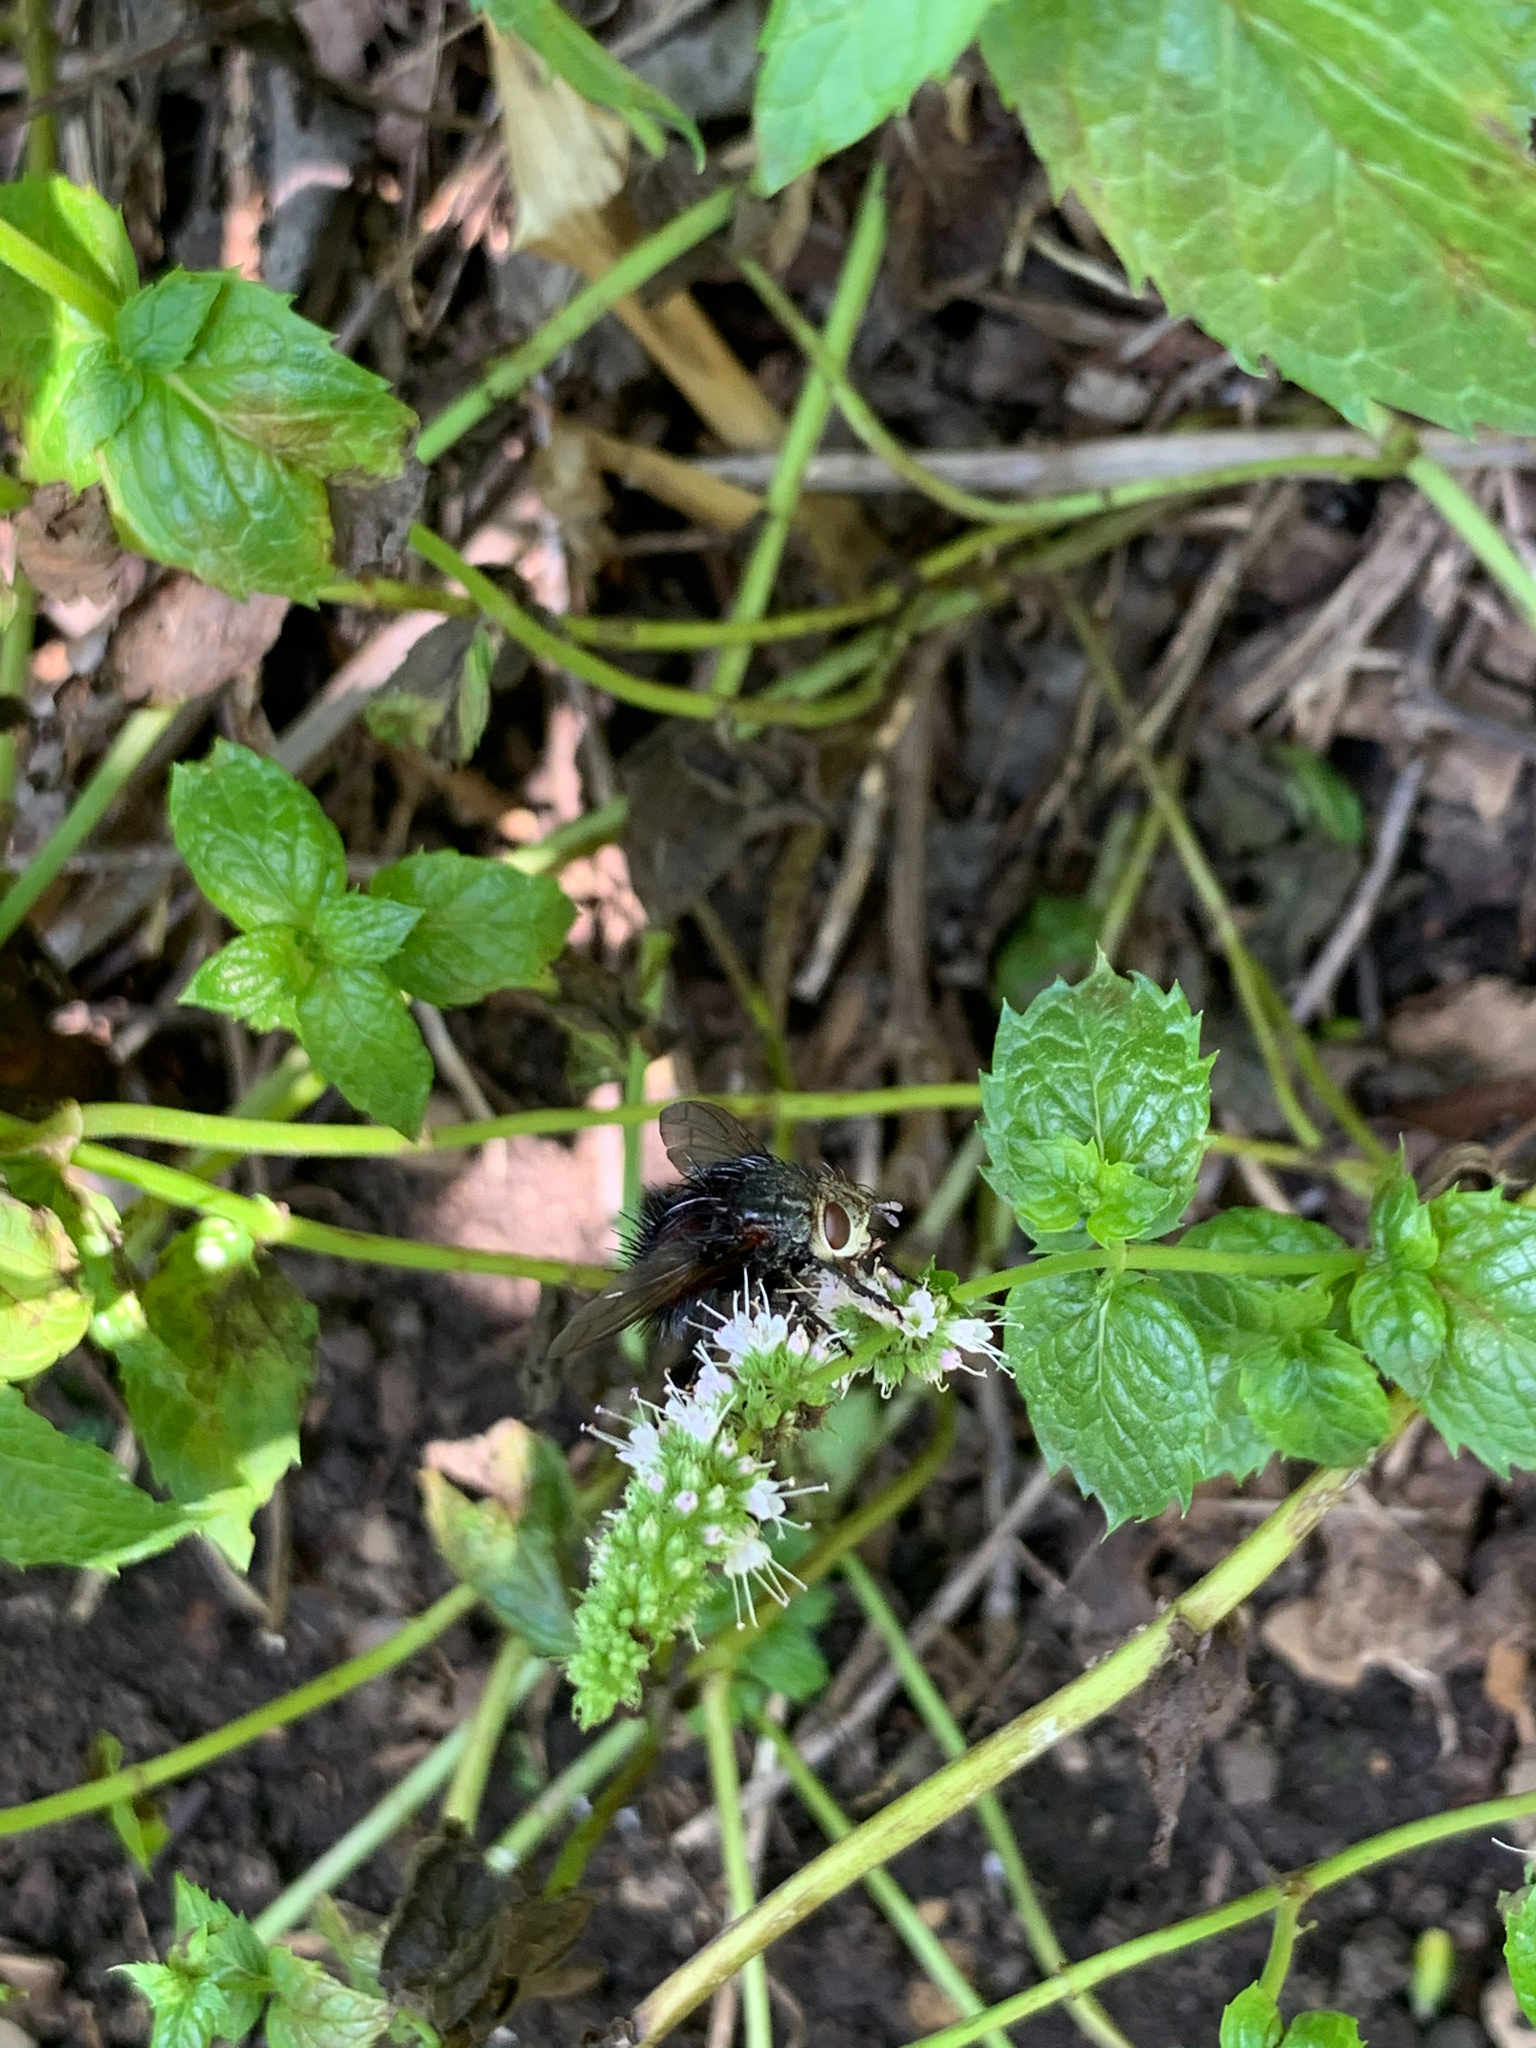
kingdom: Animalia
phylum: Arthropoda
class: Insecta
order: Diptera
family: Tachinidae
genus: Juriniopsis
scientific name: Juriniopsis adusta
